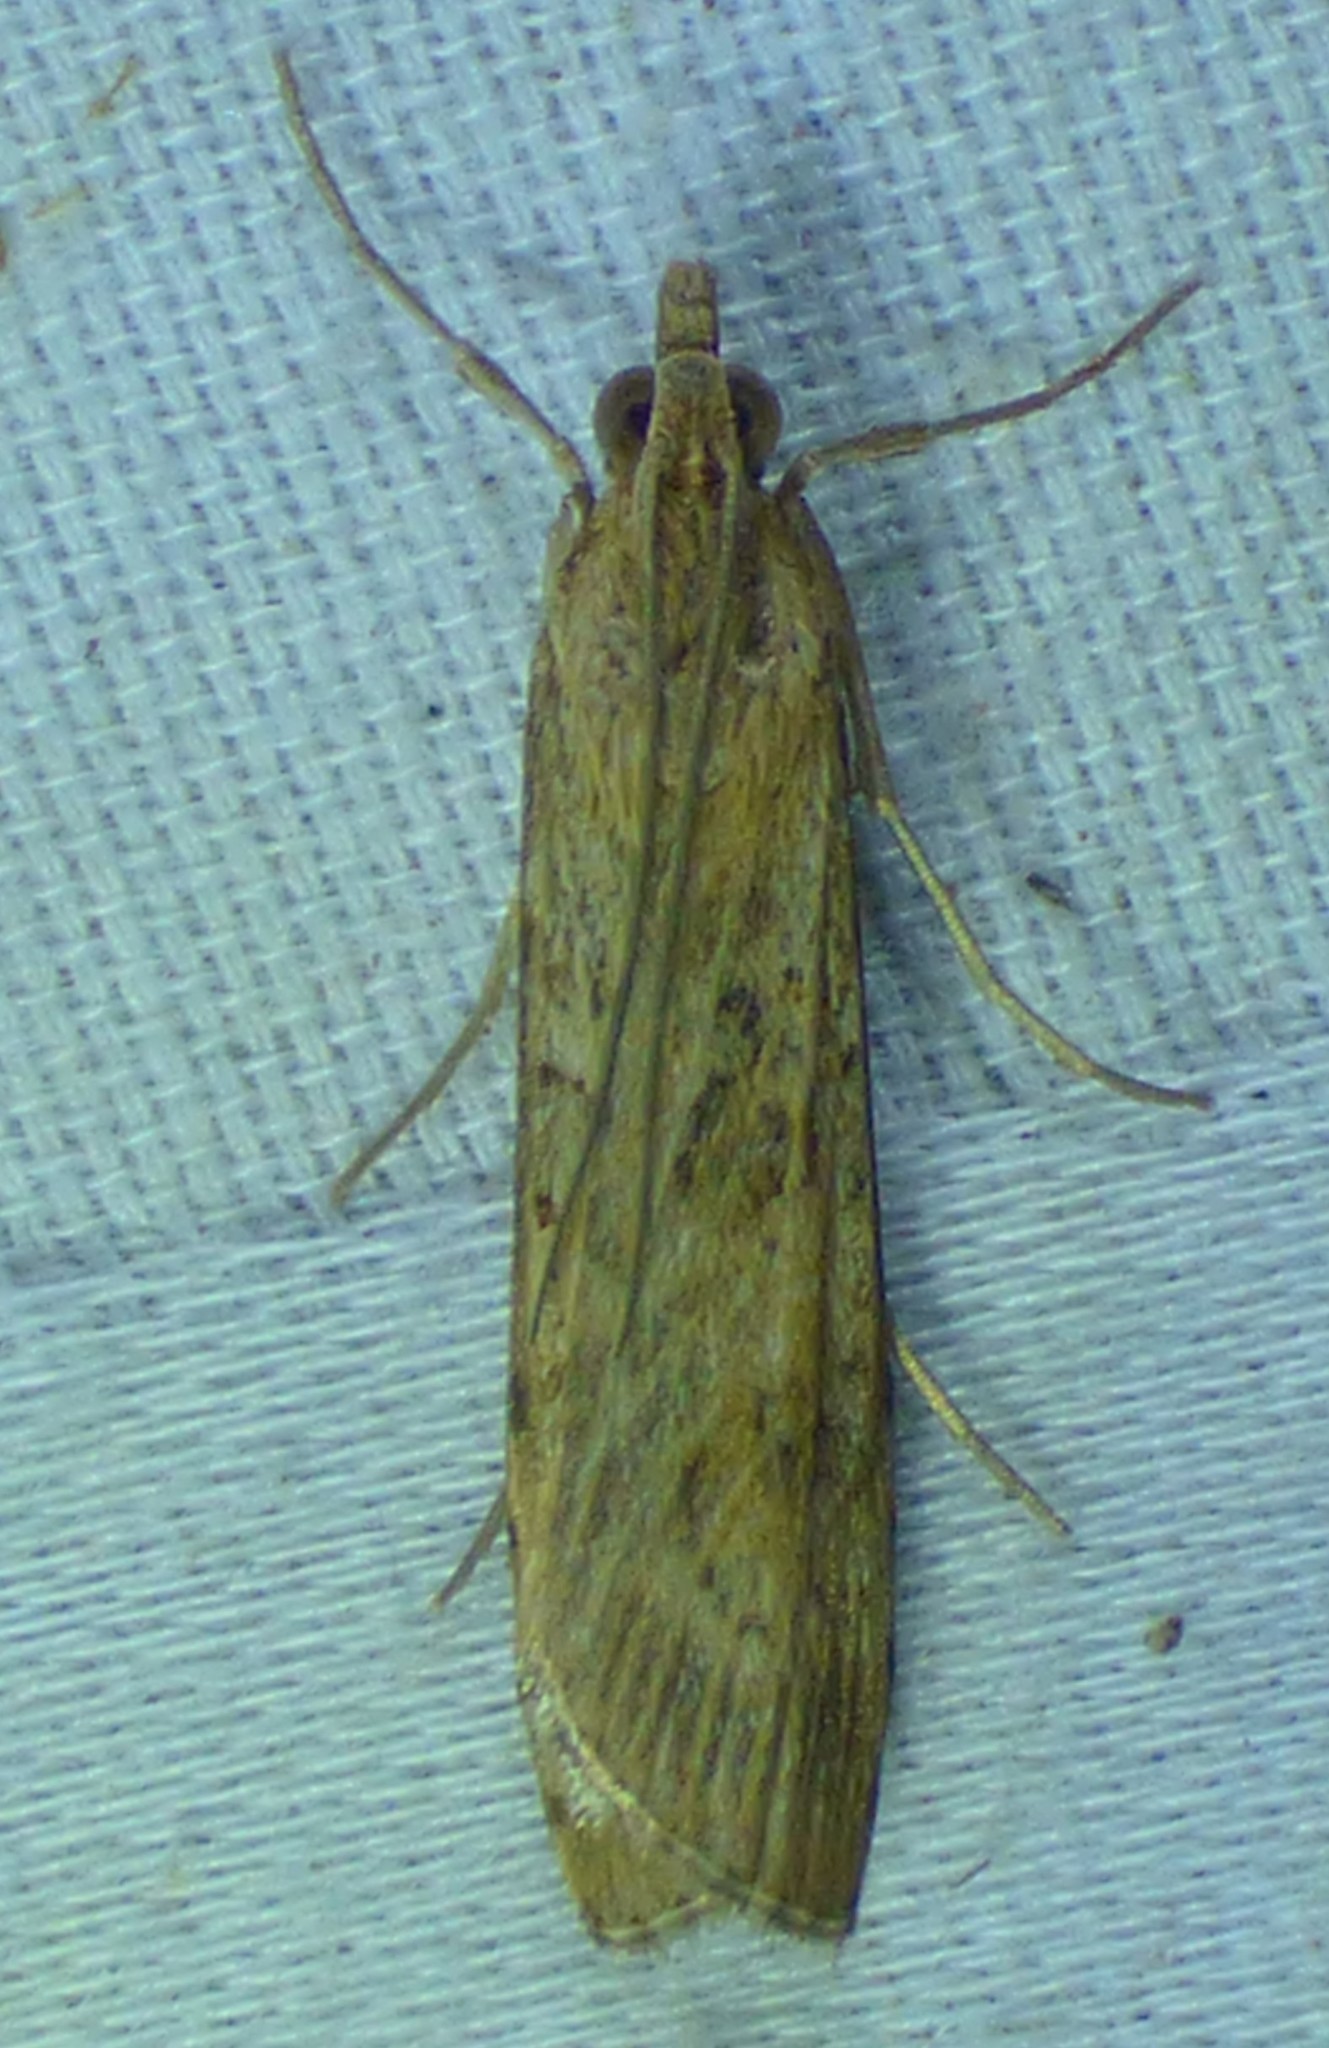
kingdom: Animalia
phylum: Arthropoda
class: Insecta
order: Lepidoptera
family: Crambidae
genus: Nomophila
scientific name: Nomophila nearctica
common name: American rush veneer
